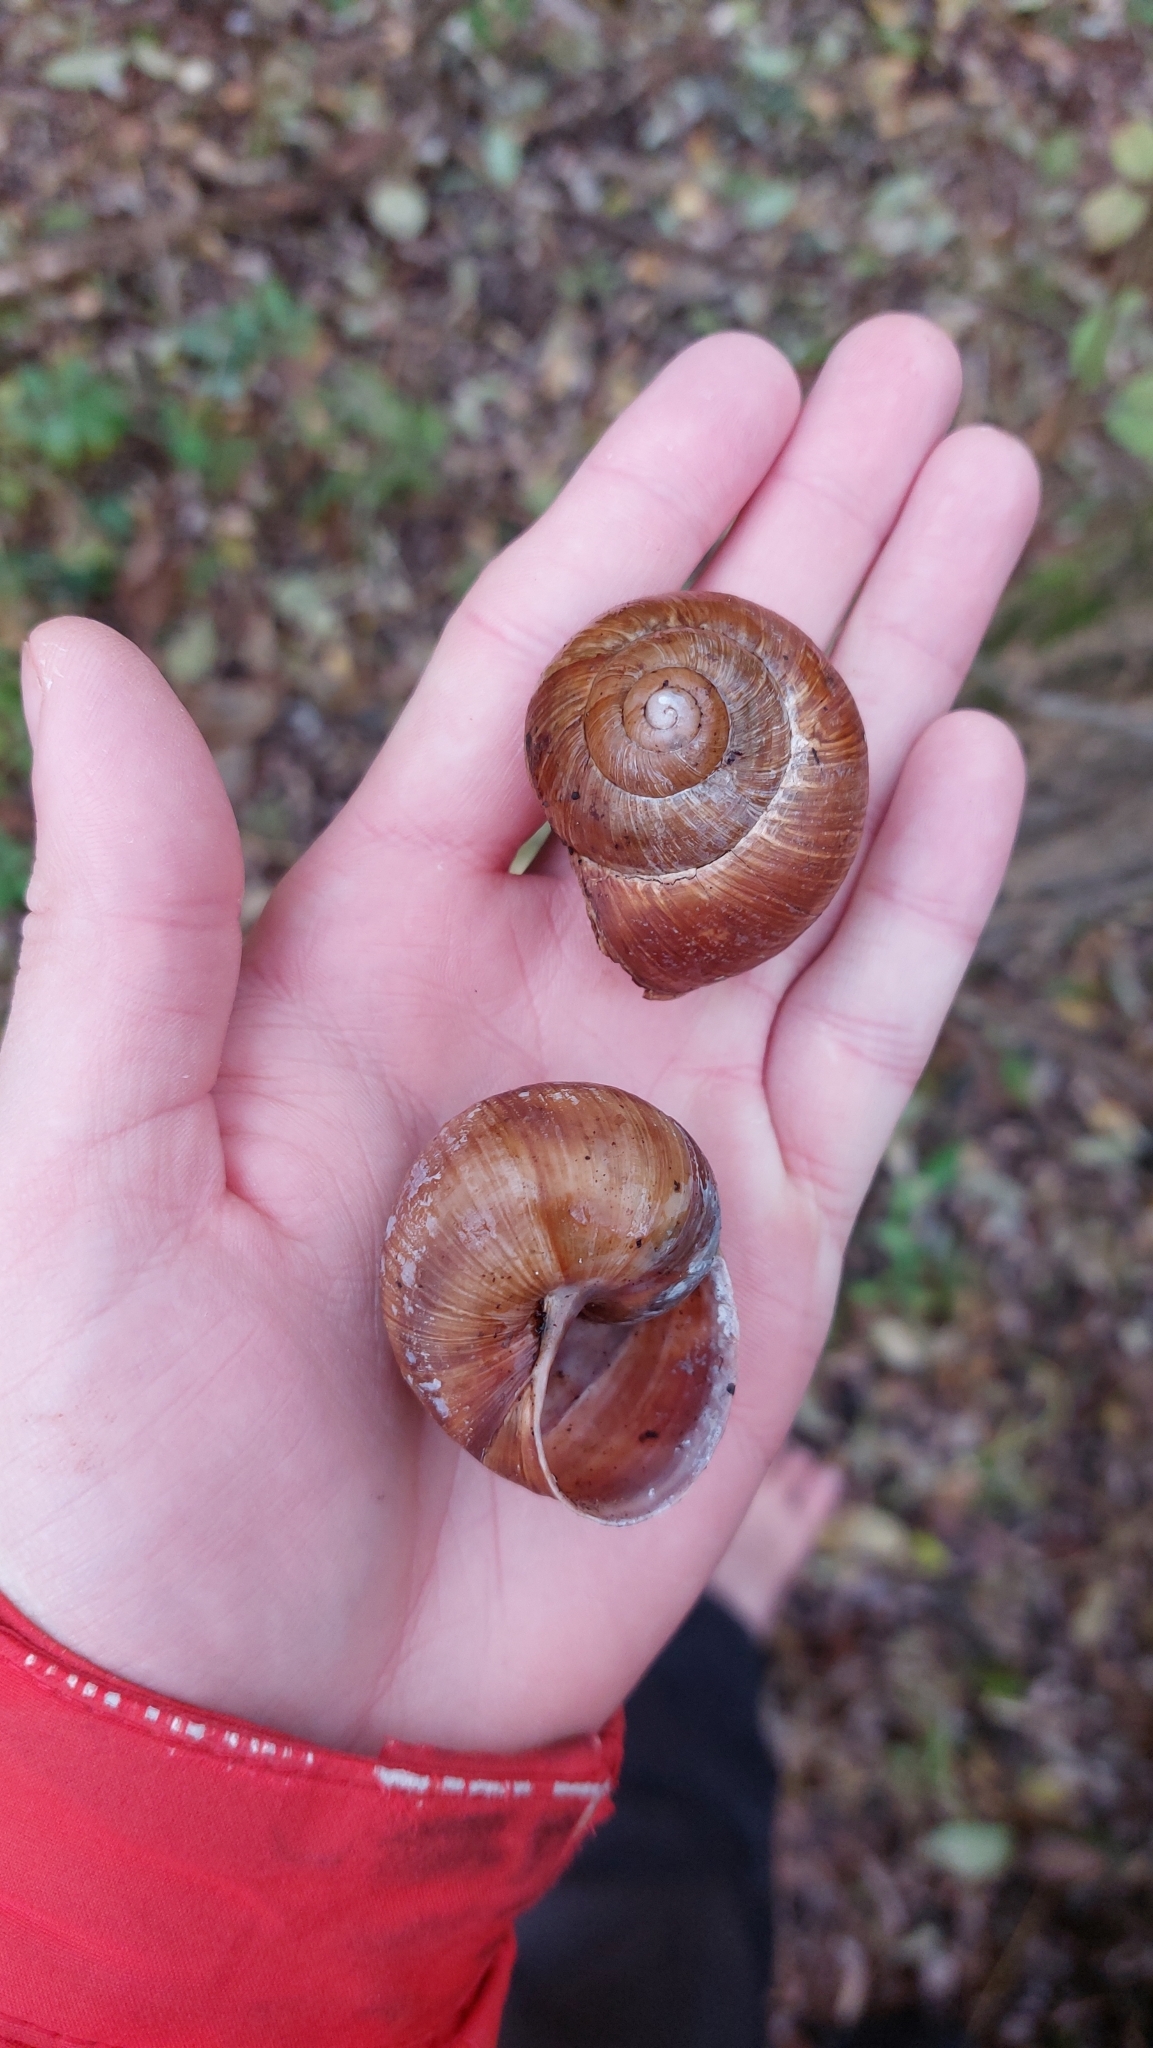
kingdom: Animalia
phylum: Mollusca
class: Gastropoda
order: Stylommatophora
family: Helicidae
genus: Helix
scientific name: Helix pomatia
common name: Roman snail
